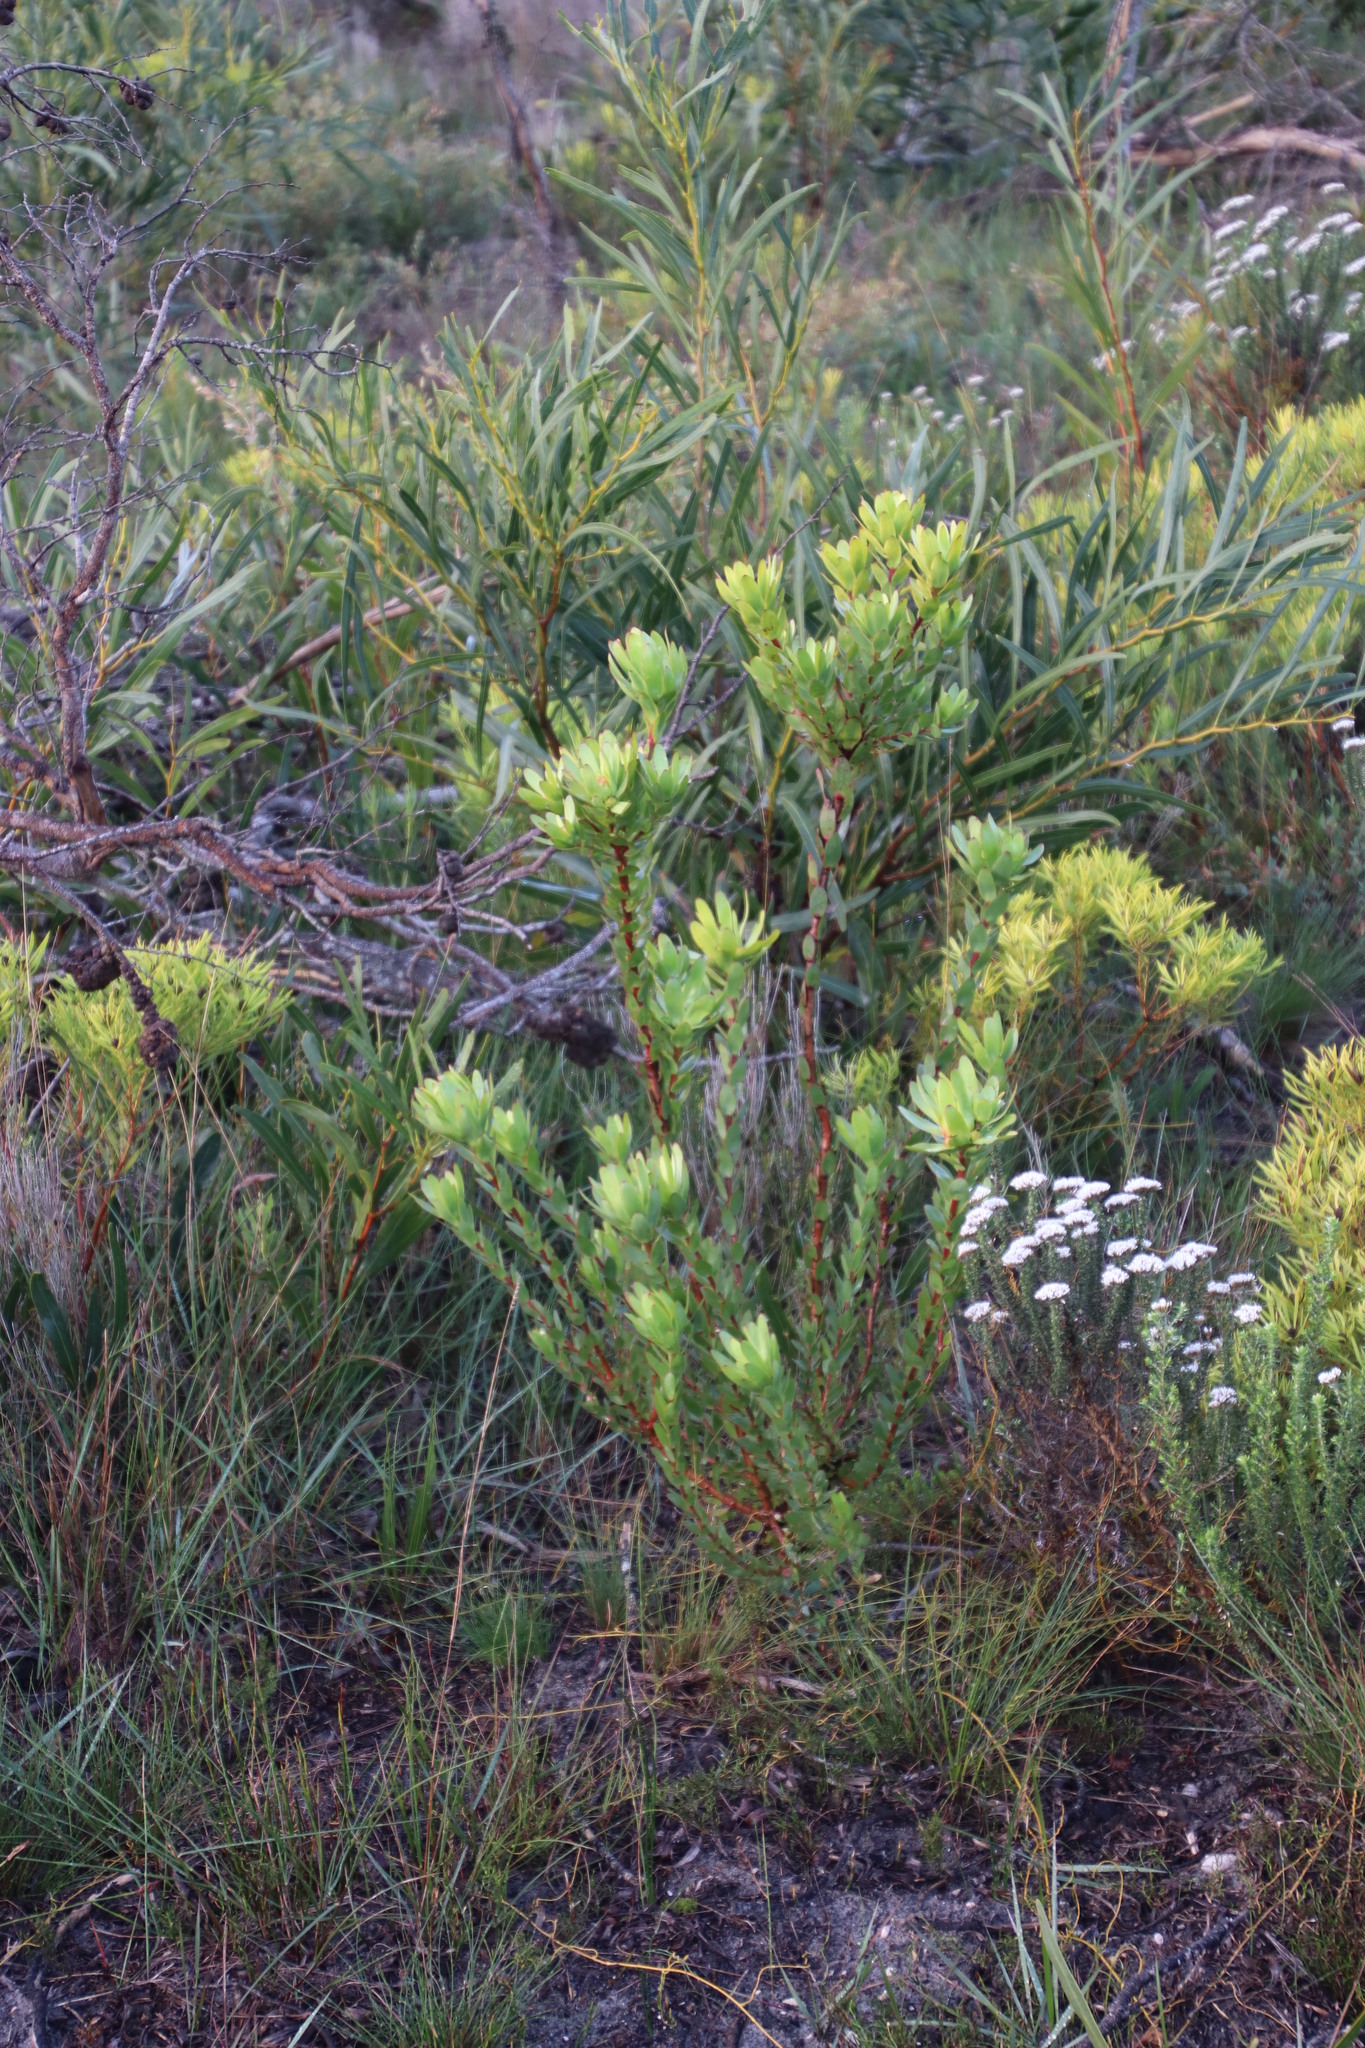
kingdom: Plantae
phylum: Tracheophyta
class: Magnoliopsida
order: Proteales
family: Proteaceae
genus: Leucadendron
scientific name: Leucadendron elimense
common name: Elim conebush
